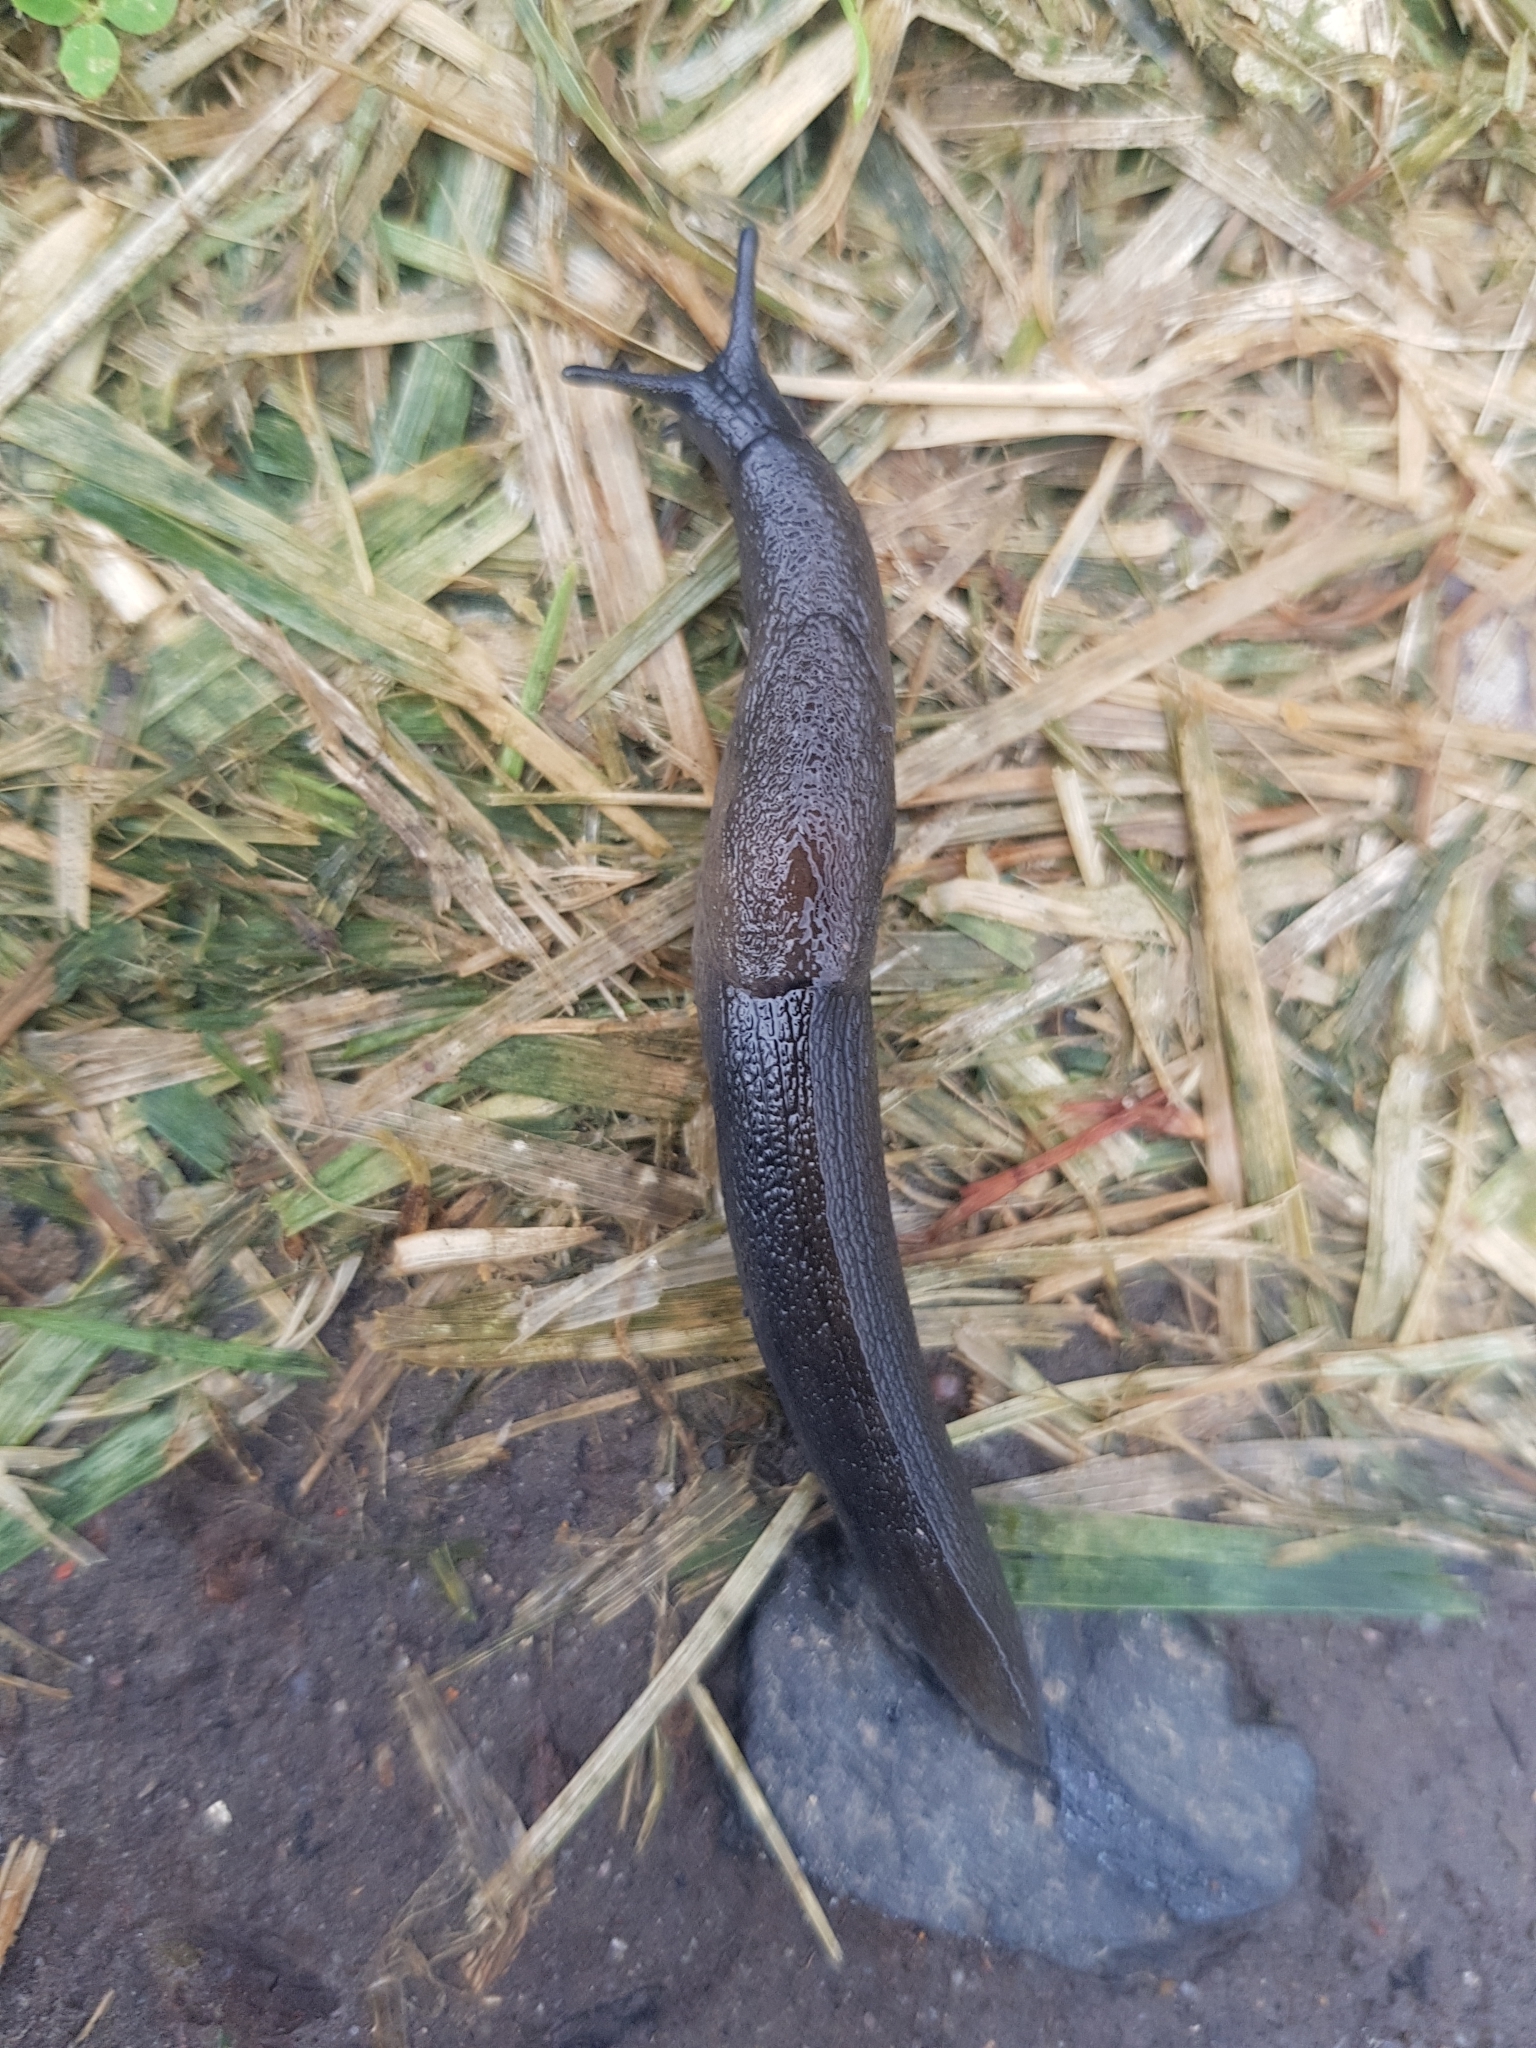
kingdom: Animalia
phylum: Mollusca
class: Gastropoda
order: Stylommatophora
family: Milacidae
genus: Milax
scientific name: Milax gagates
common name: Greenhouse slug
